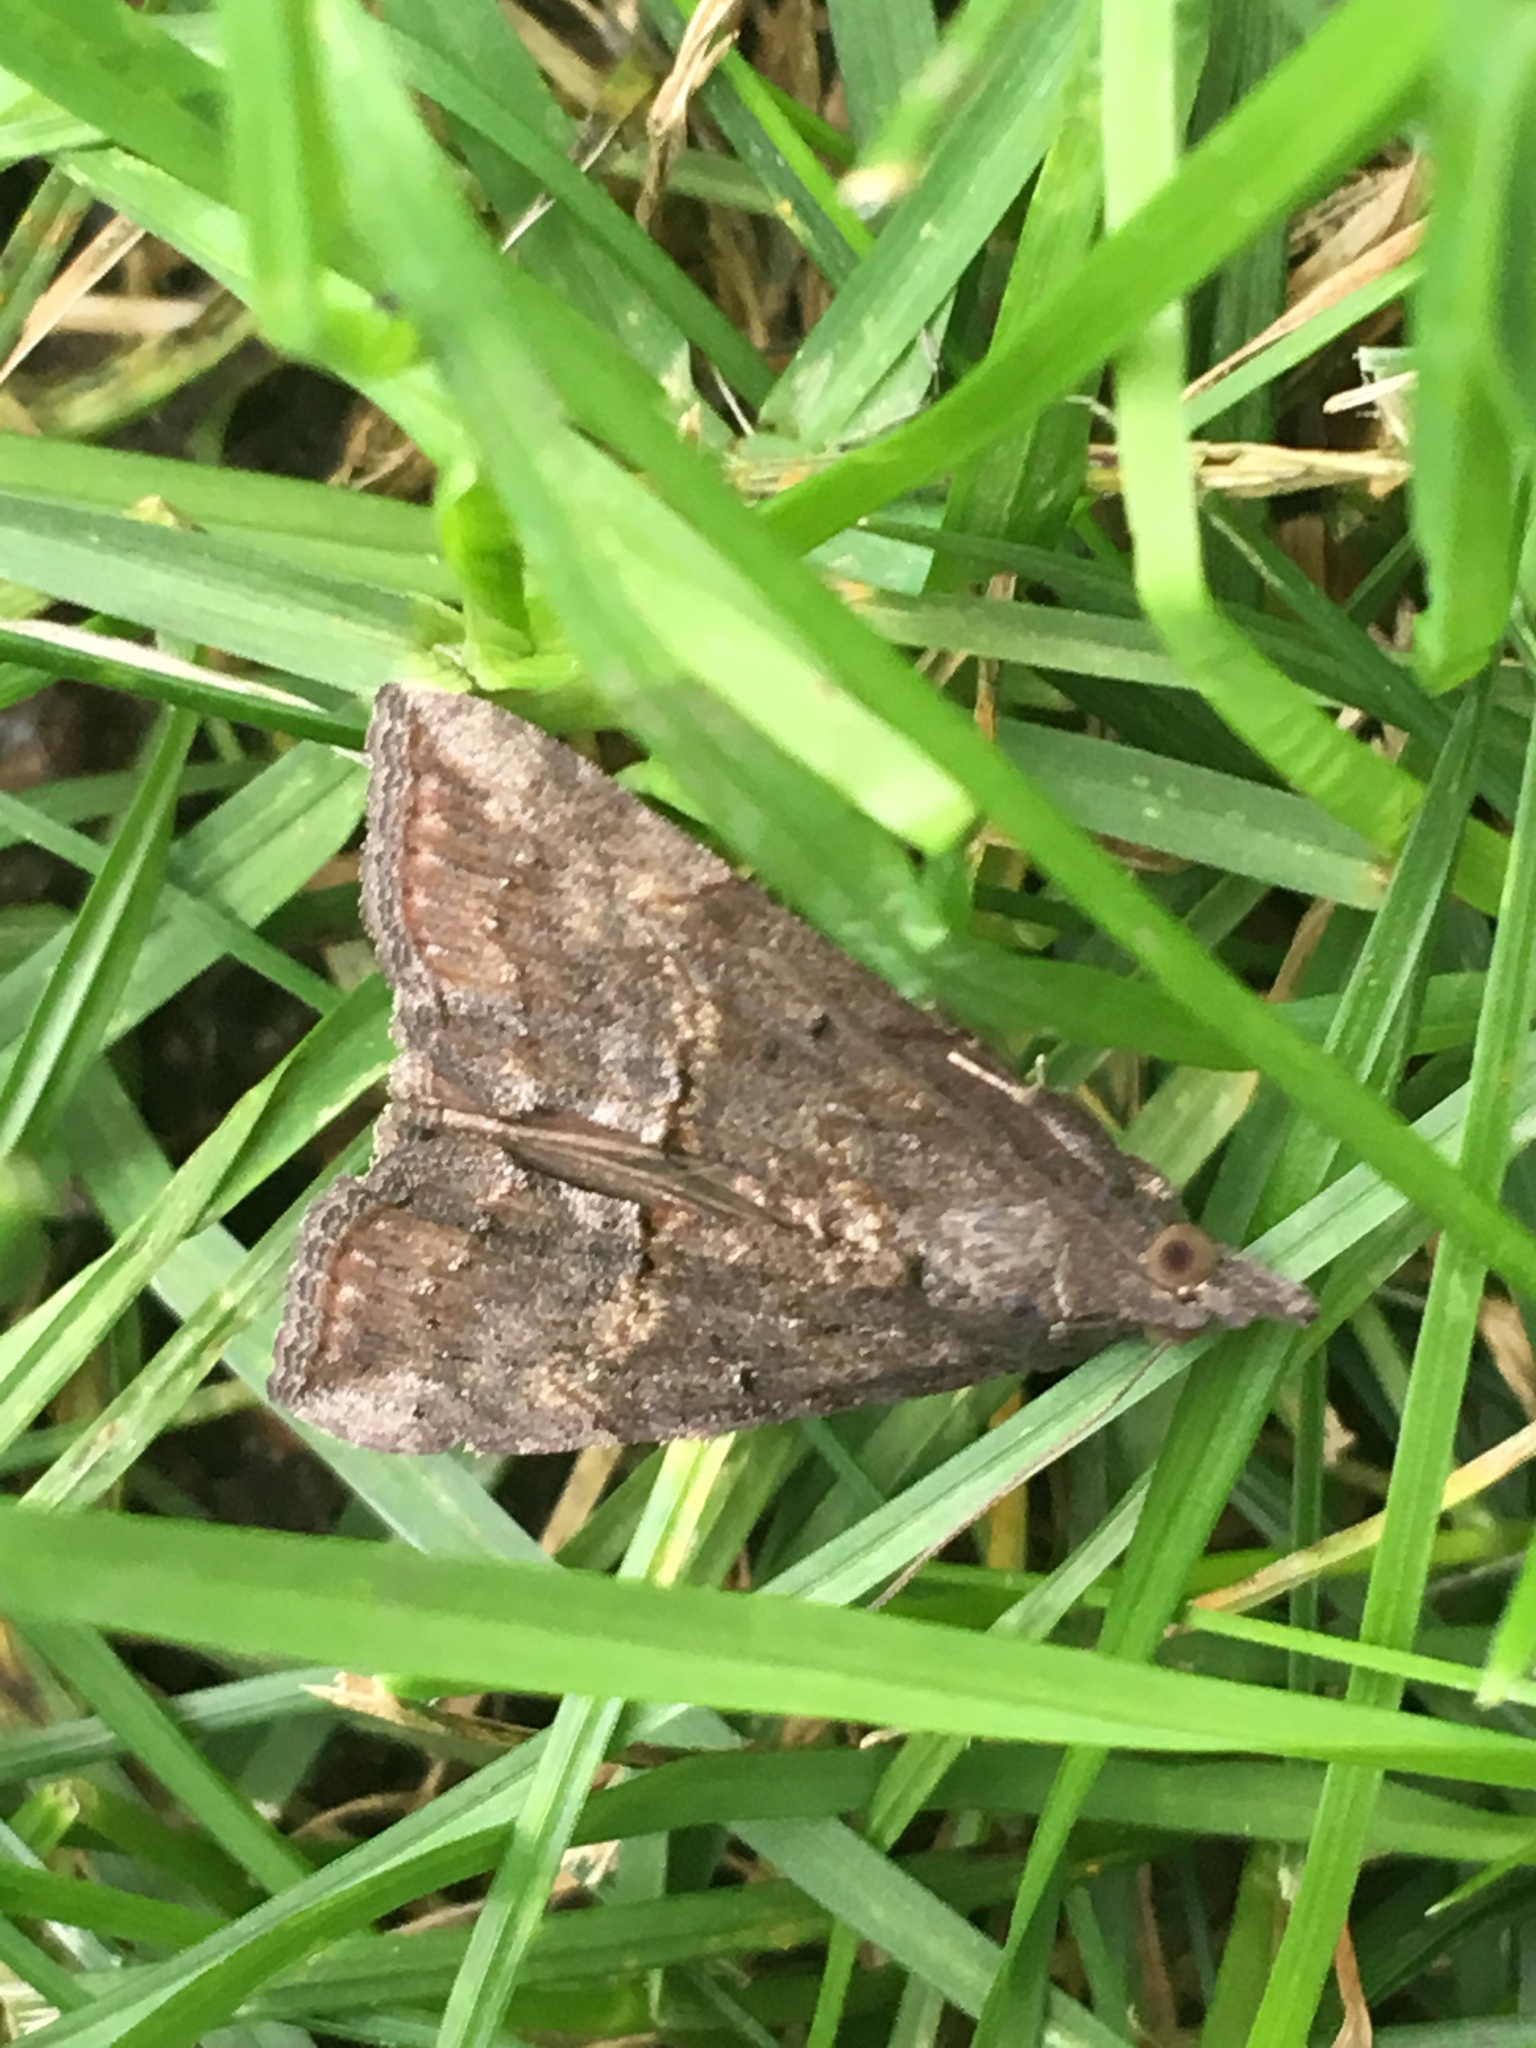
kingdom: Animalia
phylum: Arthropoda
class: Insecta
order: Lepidoptera
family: Erebidae
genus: Hypena
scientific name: Hypena scabra
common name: Green cloverworm
